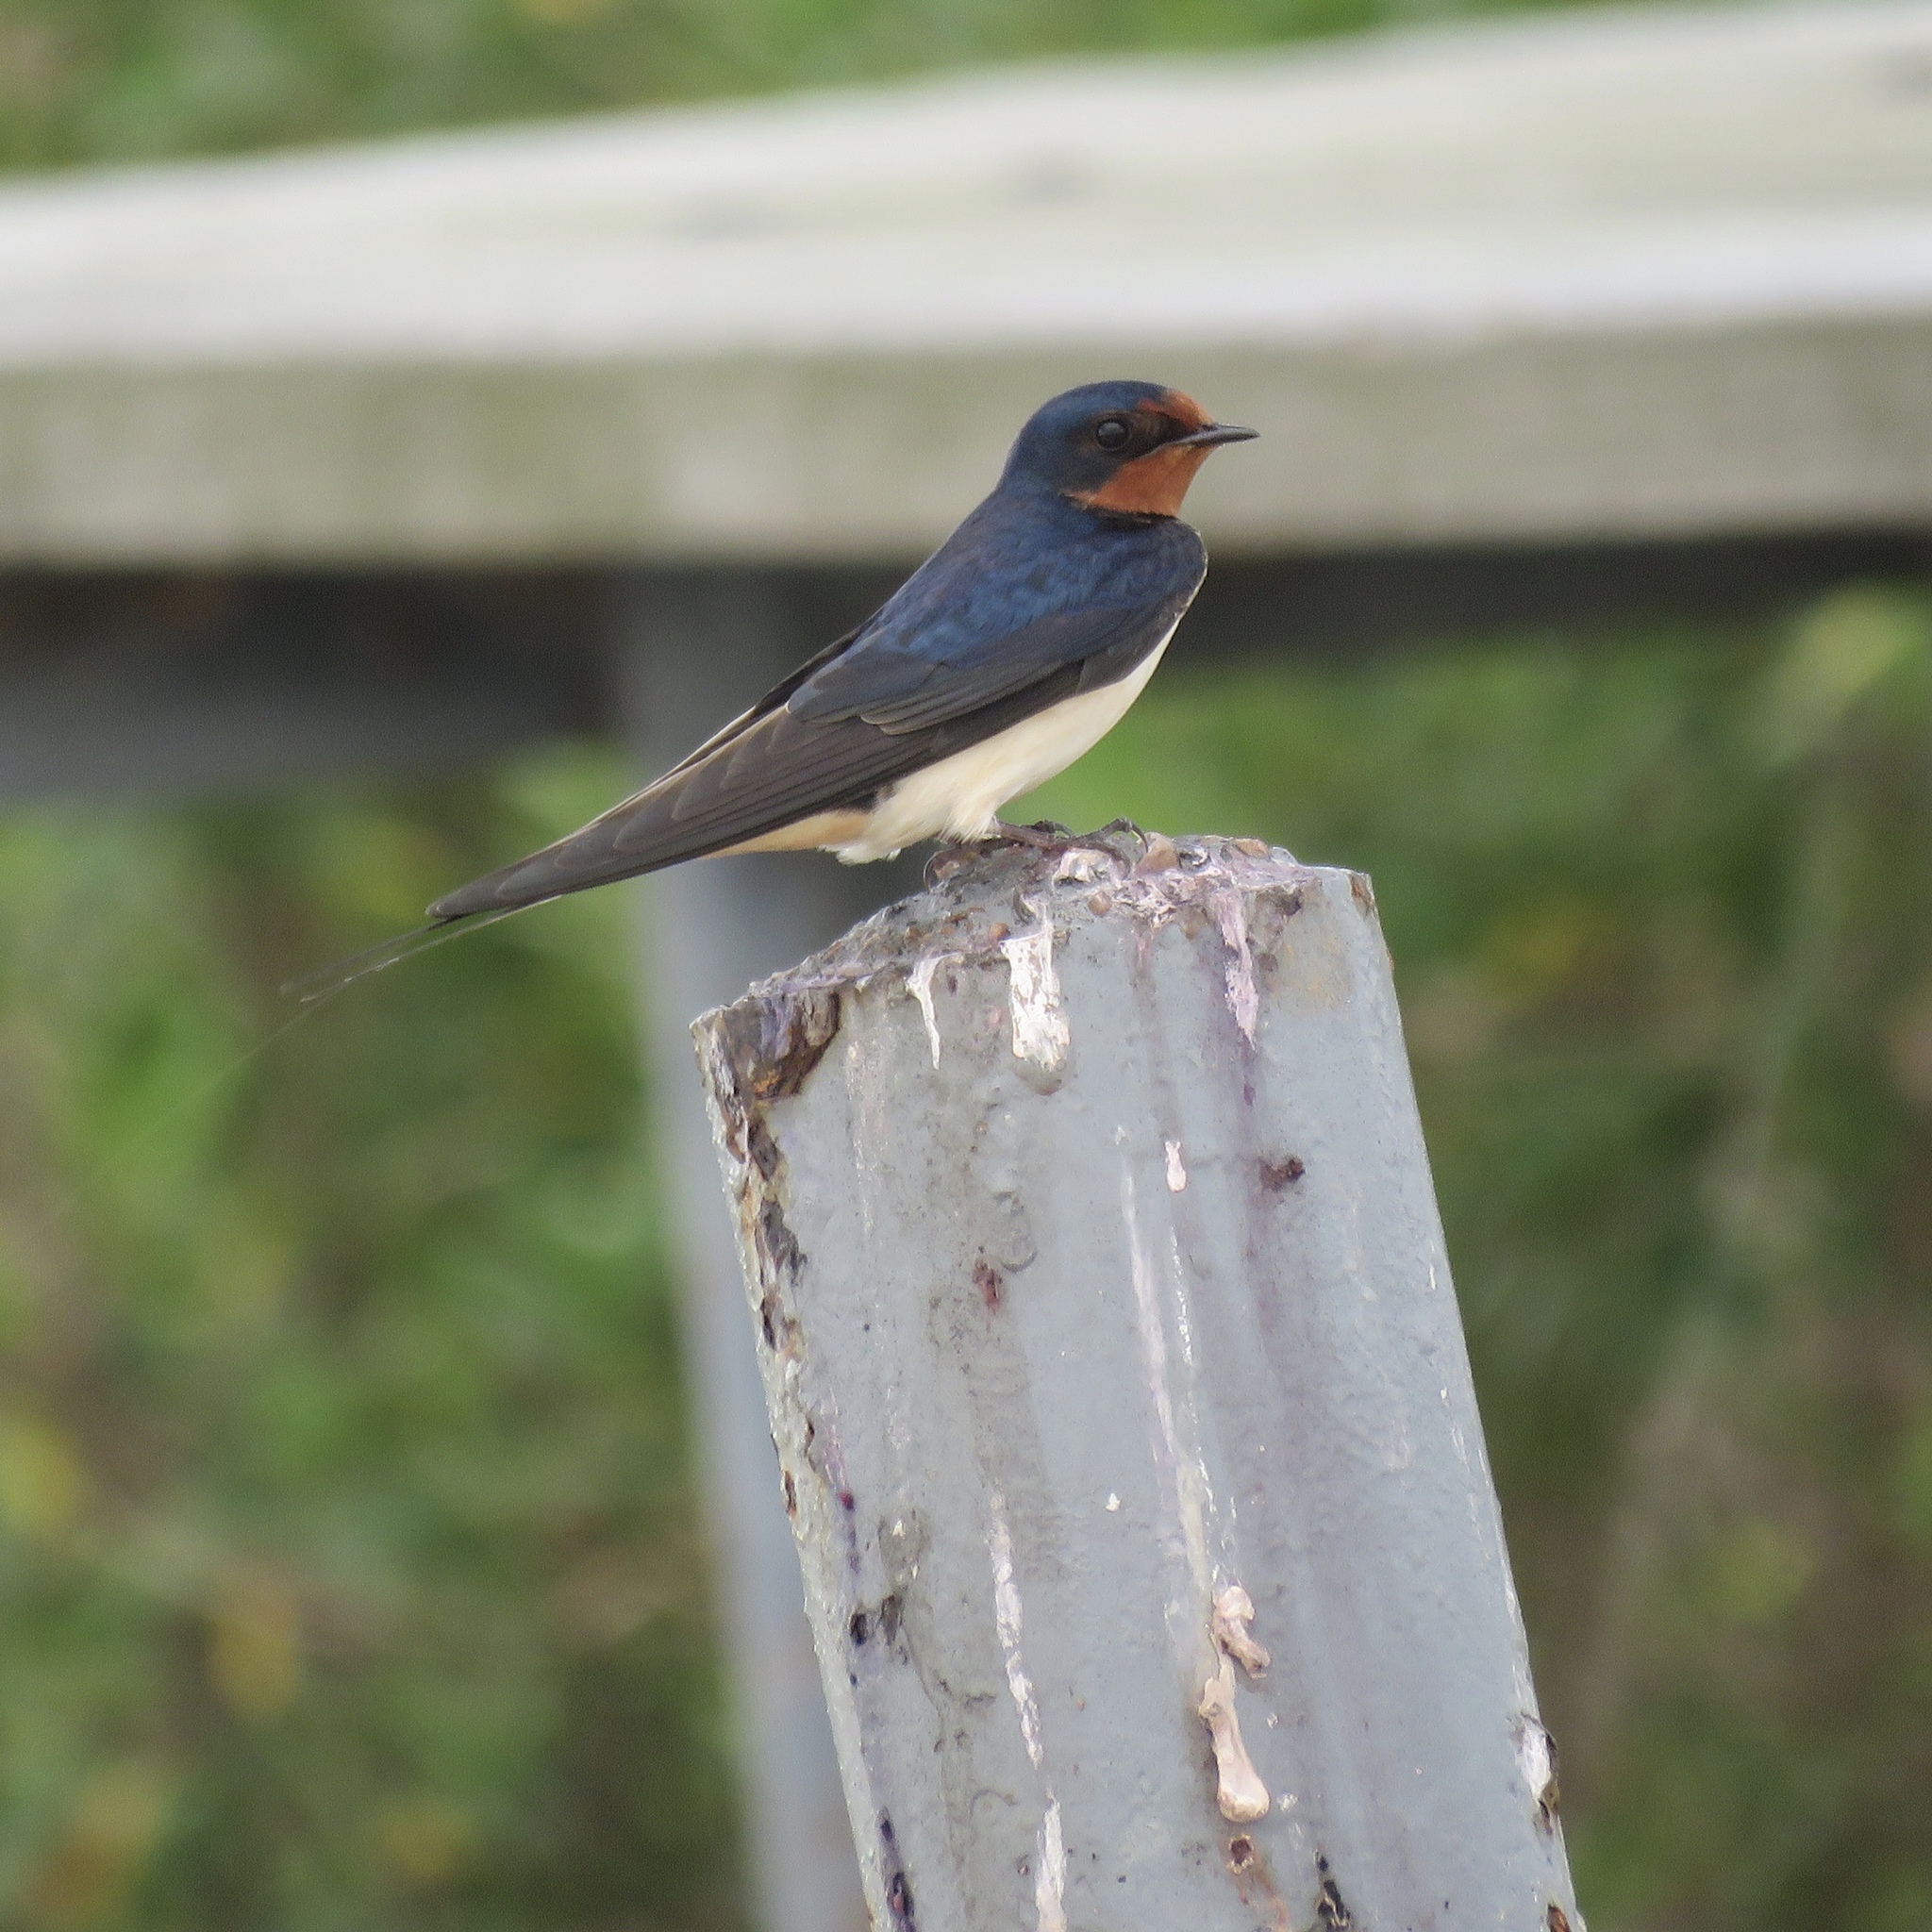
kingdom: Animalia
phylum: Chordata
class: Aves
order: Passeriformes
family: Hirundinidae
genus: Hirundo
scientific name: Hirundo rustica
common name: Barn swallow
